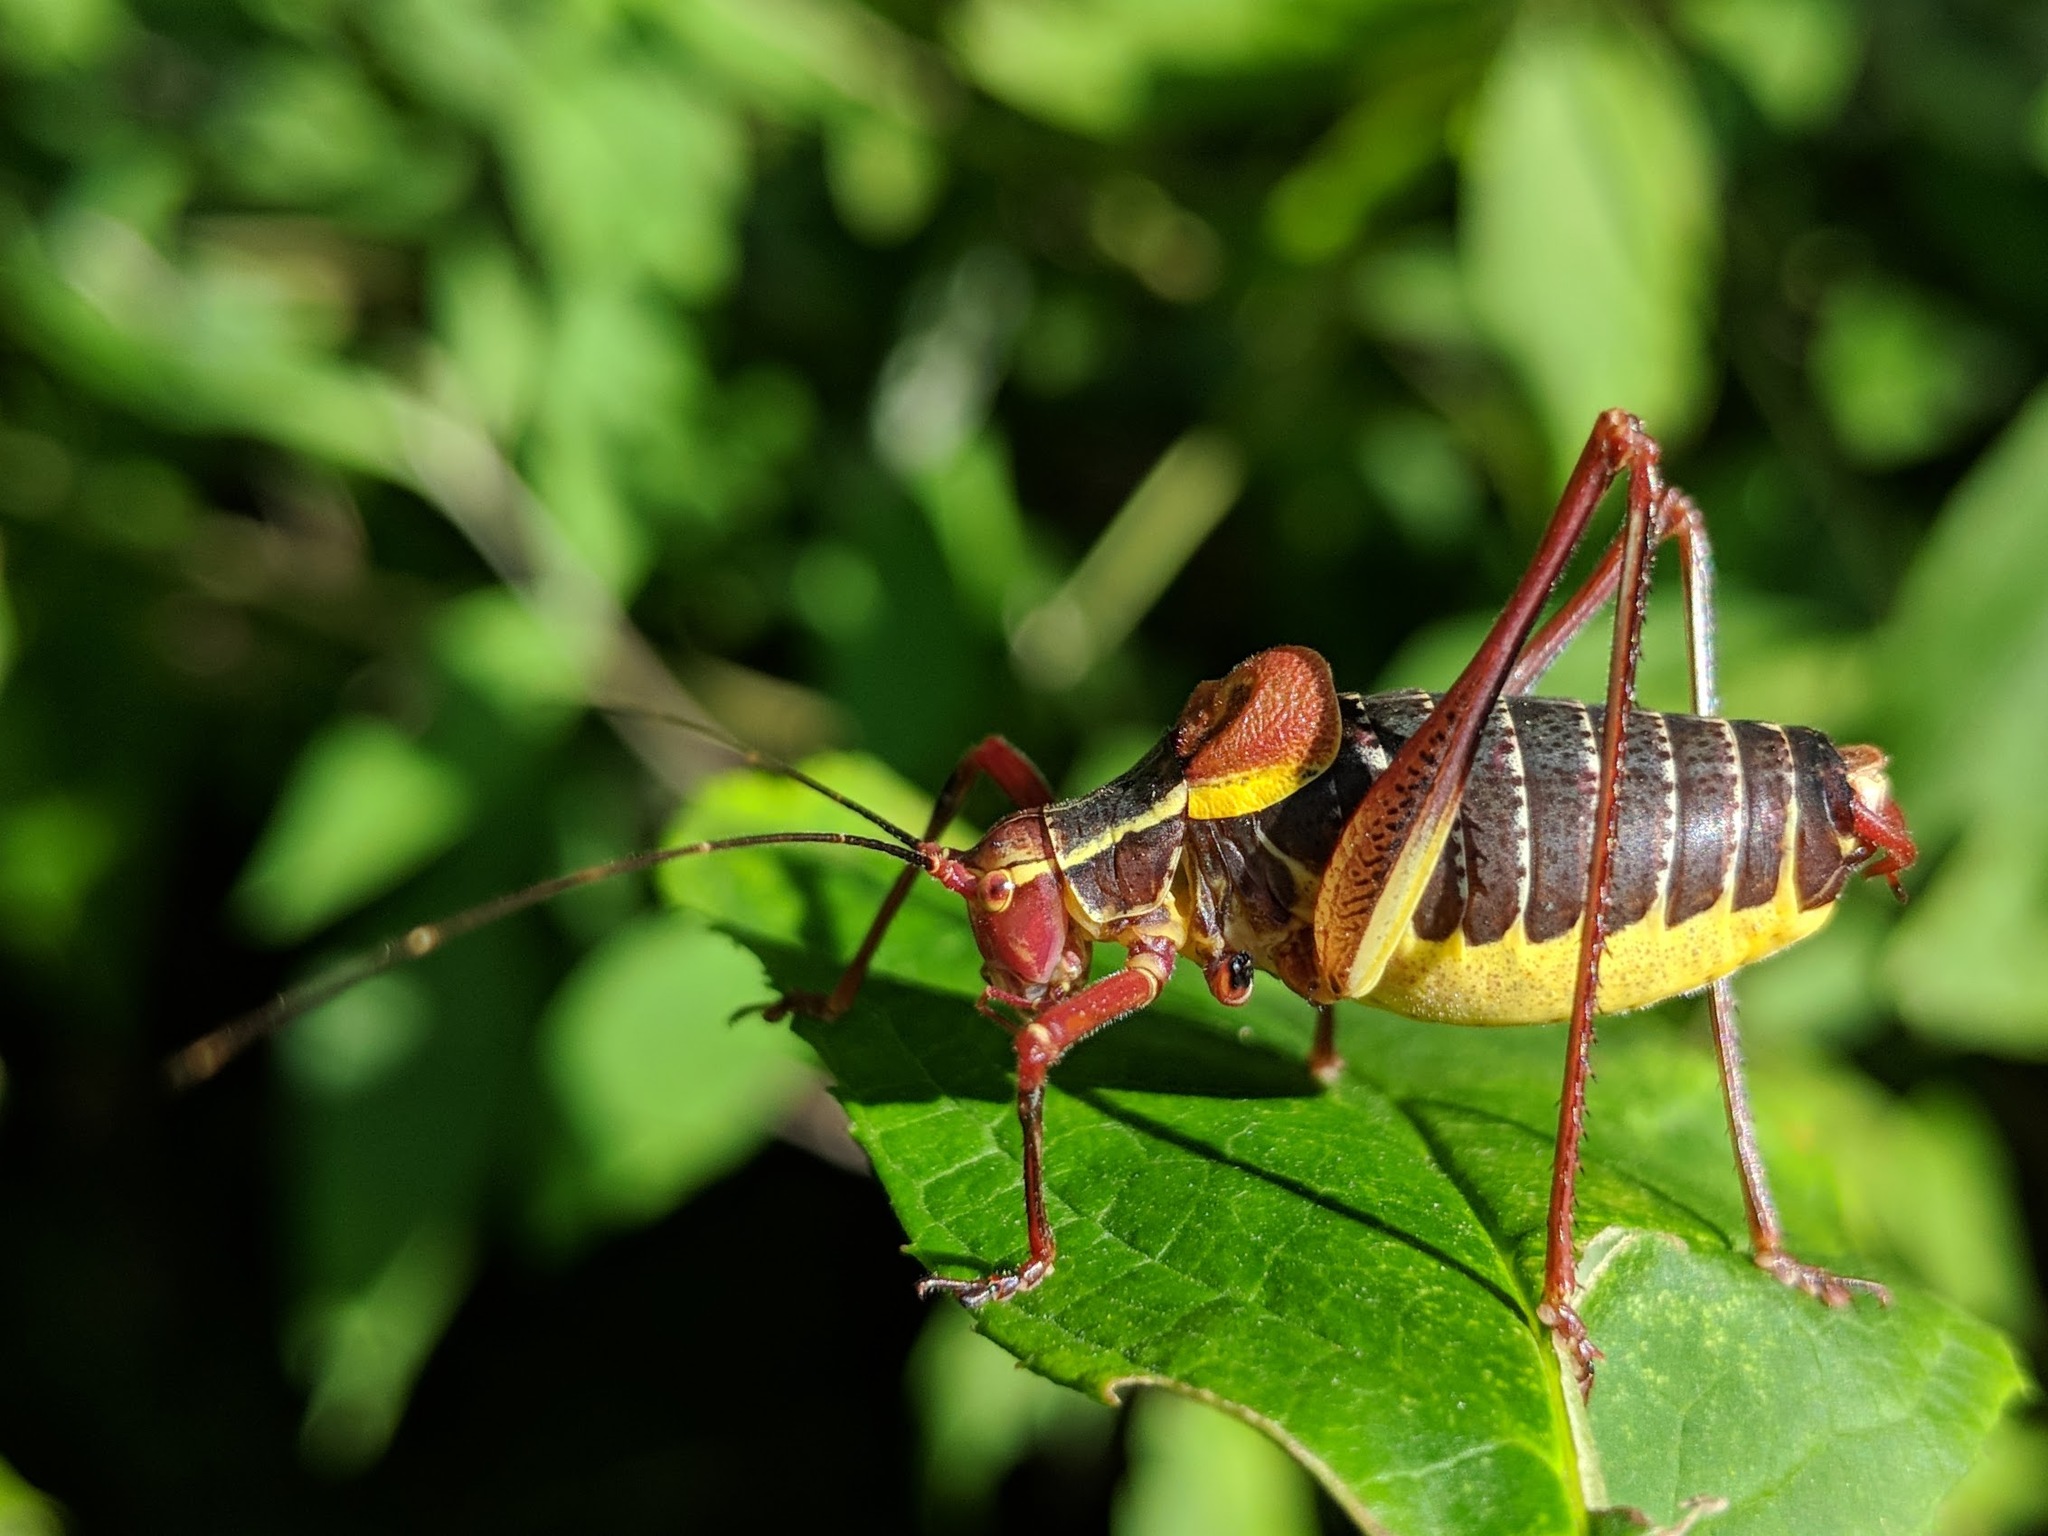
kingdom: Animalia
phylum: Arthropoda
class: Insecta
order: Orthoptera
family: Tettigoniidae
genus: Barbitistes
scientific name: Barbitistes obtusus
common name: Alpine saw bush-cricket
